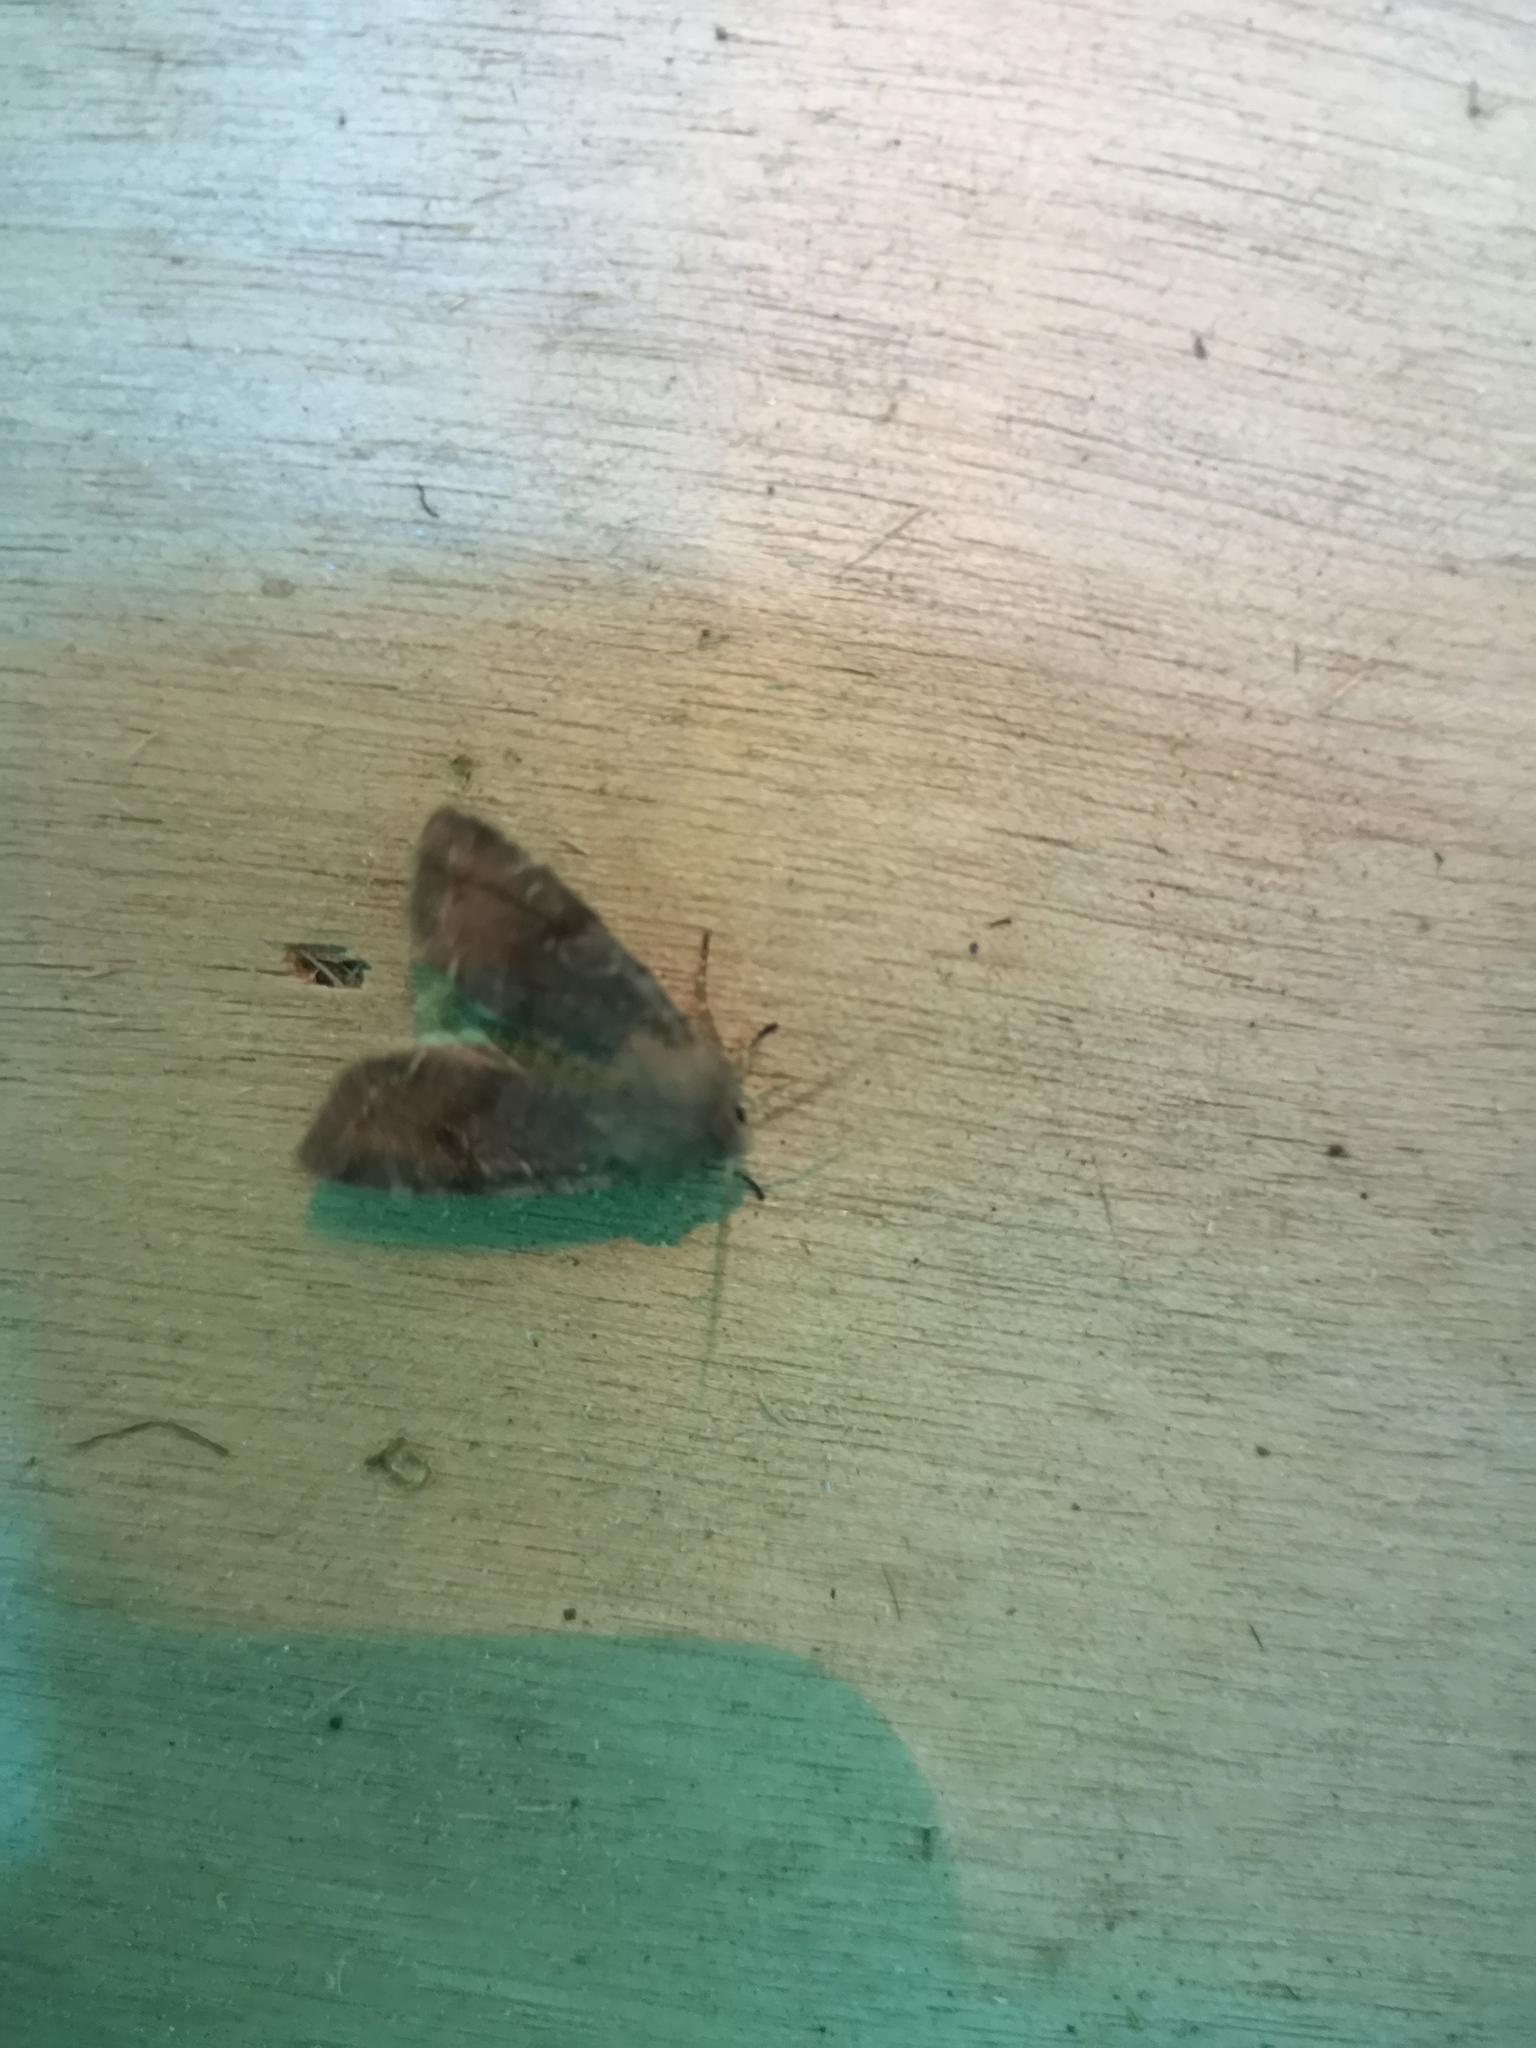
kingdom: Animalia
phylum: Arthropoda
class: Insecta
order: Lepidoptera
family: Noctuidae
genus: Orthosia
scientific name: Orthosia incerta
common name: Clouded drab
